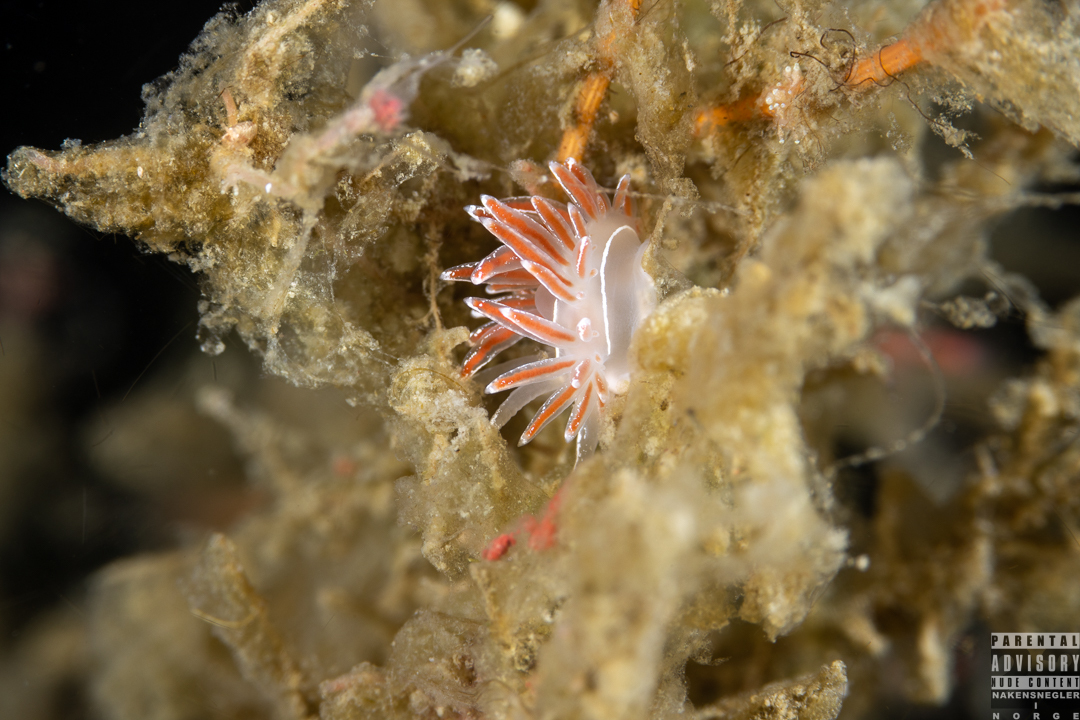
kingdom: Animalia
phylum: Mollusca
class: Gastropoda
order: Nudibranchia
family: Coryphellidae
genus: Coryphella
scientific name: Coryphella lineata
